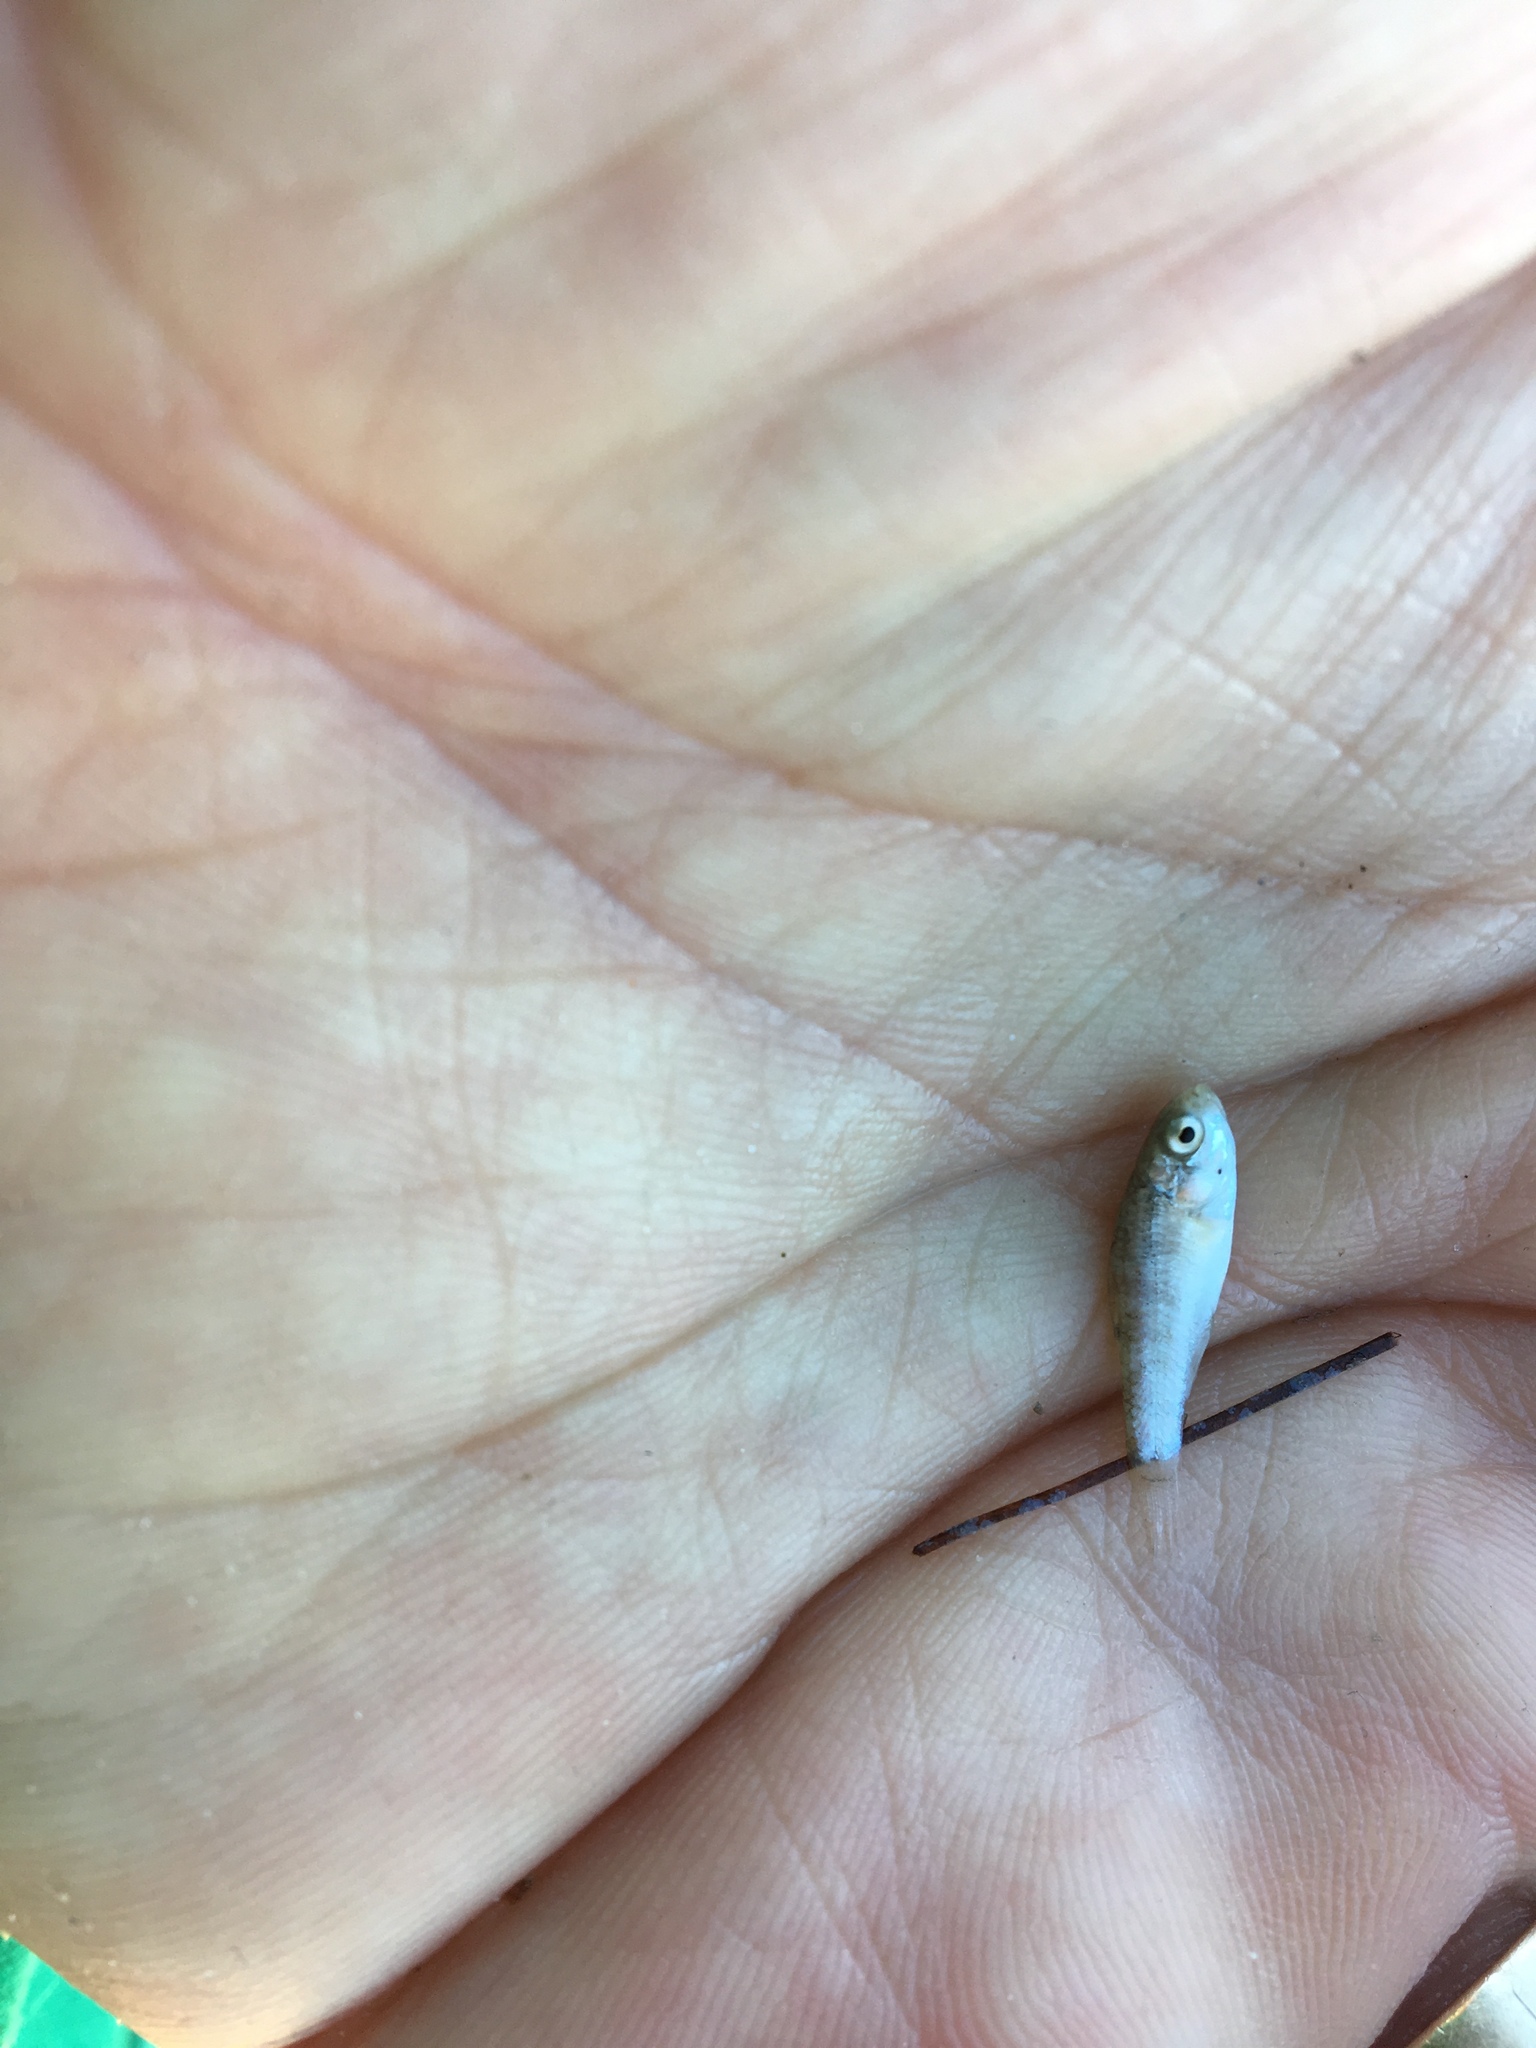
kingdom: Animalia
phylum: Chordata
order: Cyprinodontiformes
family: Cyprinodontidae
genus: Cyprinodon
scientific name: Cyprinodon variegatus
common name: Sheepshead minnow
